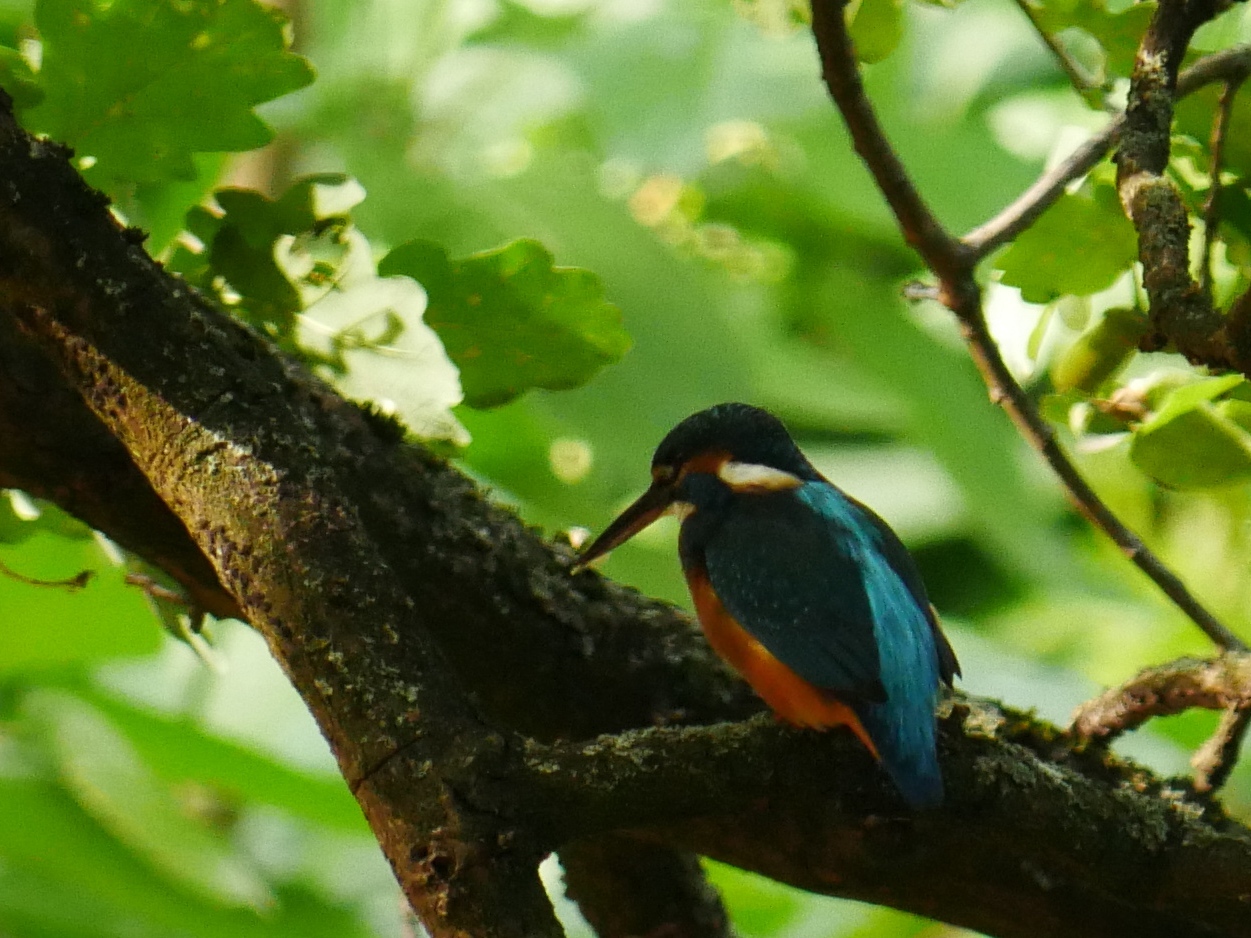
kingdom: Animalia
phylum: Chordata
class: Aves
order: Coraciiformes
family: Alcedinidae
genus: Alcedo
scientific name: Alcedo atthis
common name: Common kingfisher
